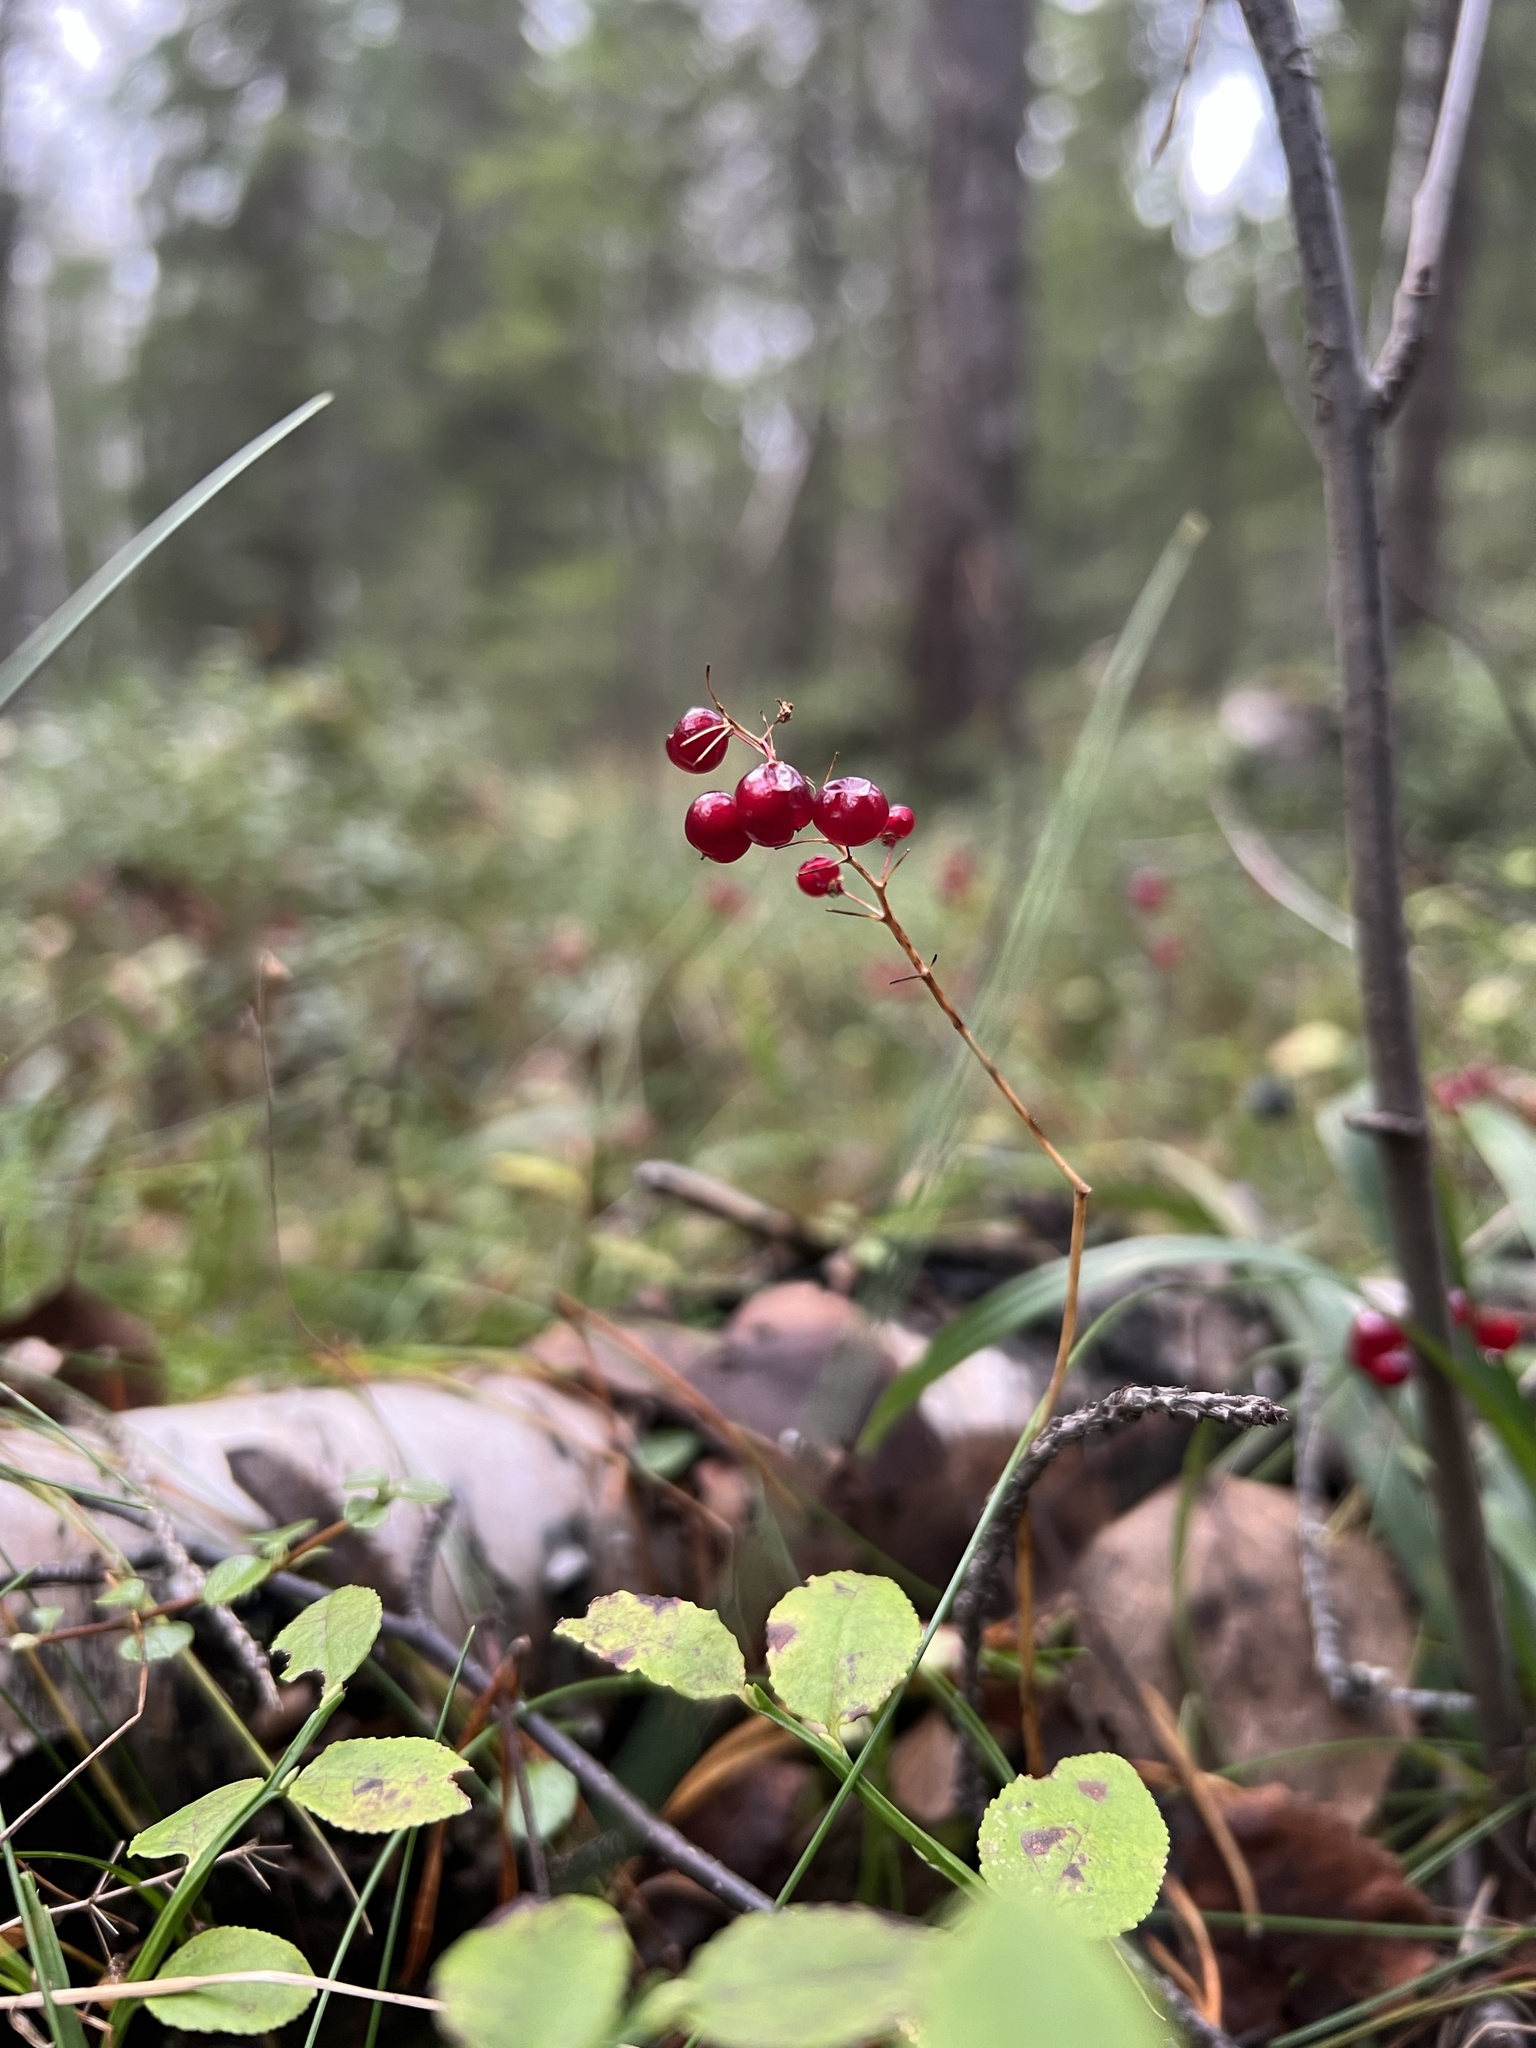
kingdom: Plantae
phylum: Tracheophyta
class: Liliopsida
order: Asparagales
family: Asparagaceae
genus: Maianthemum
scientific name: Maianthemum bifolium
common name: May lily
